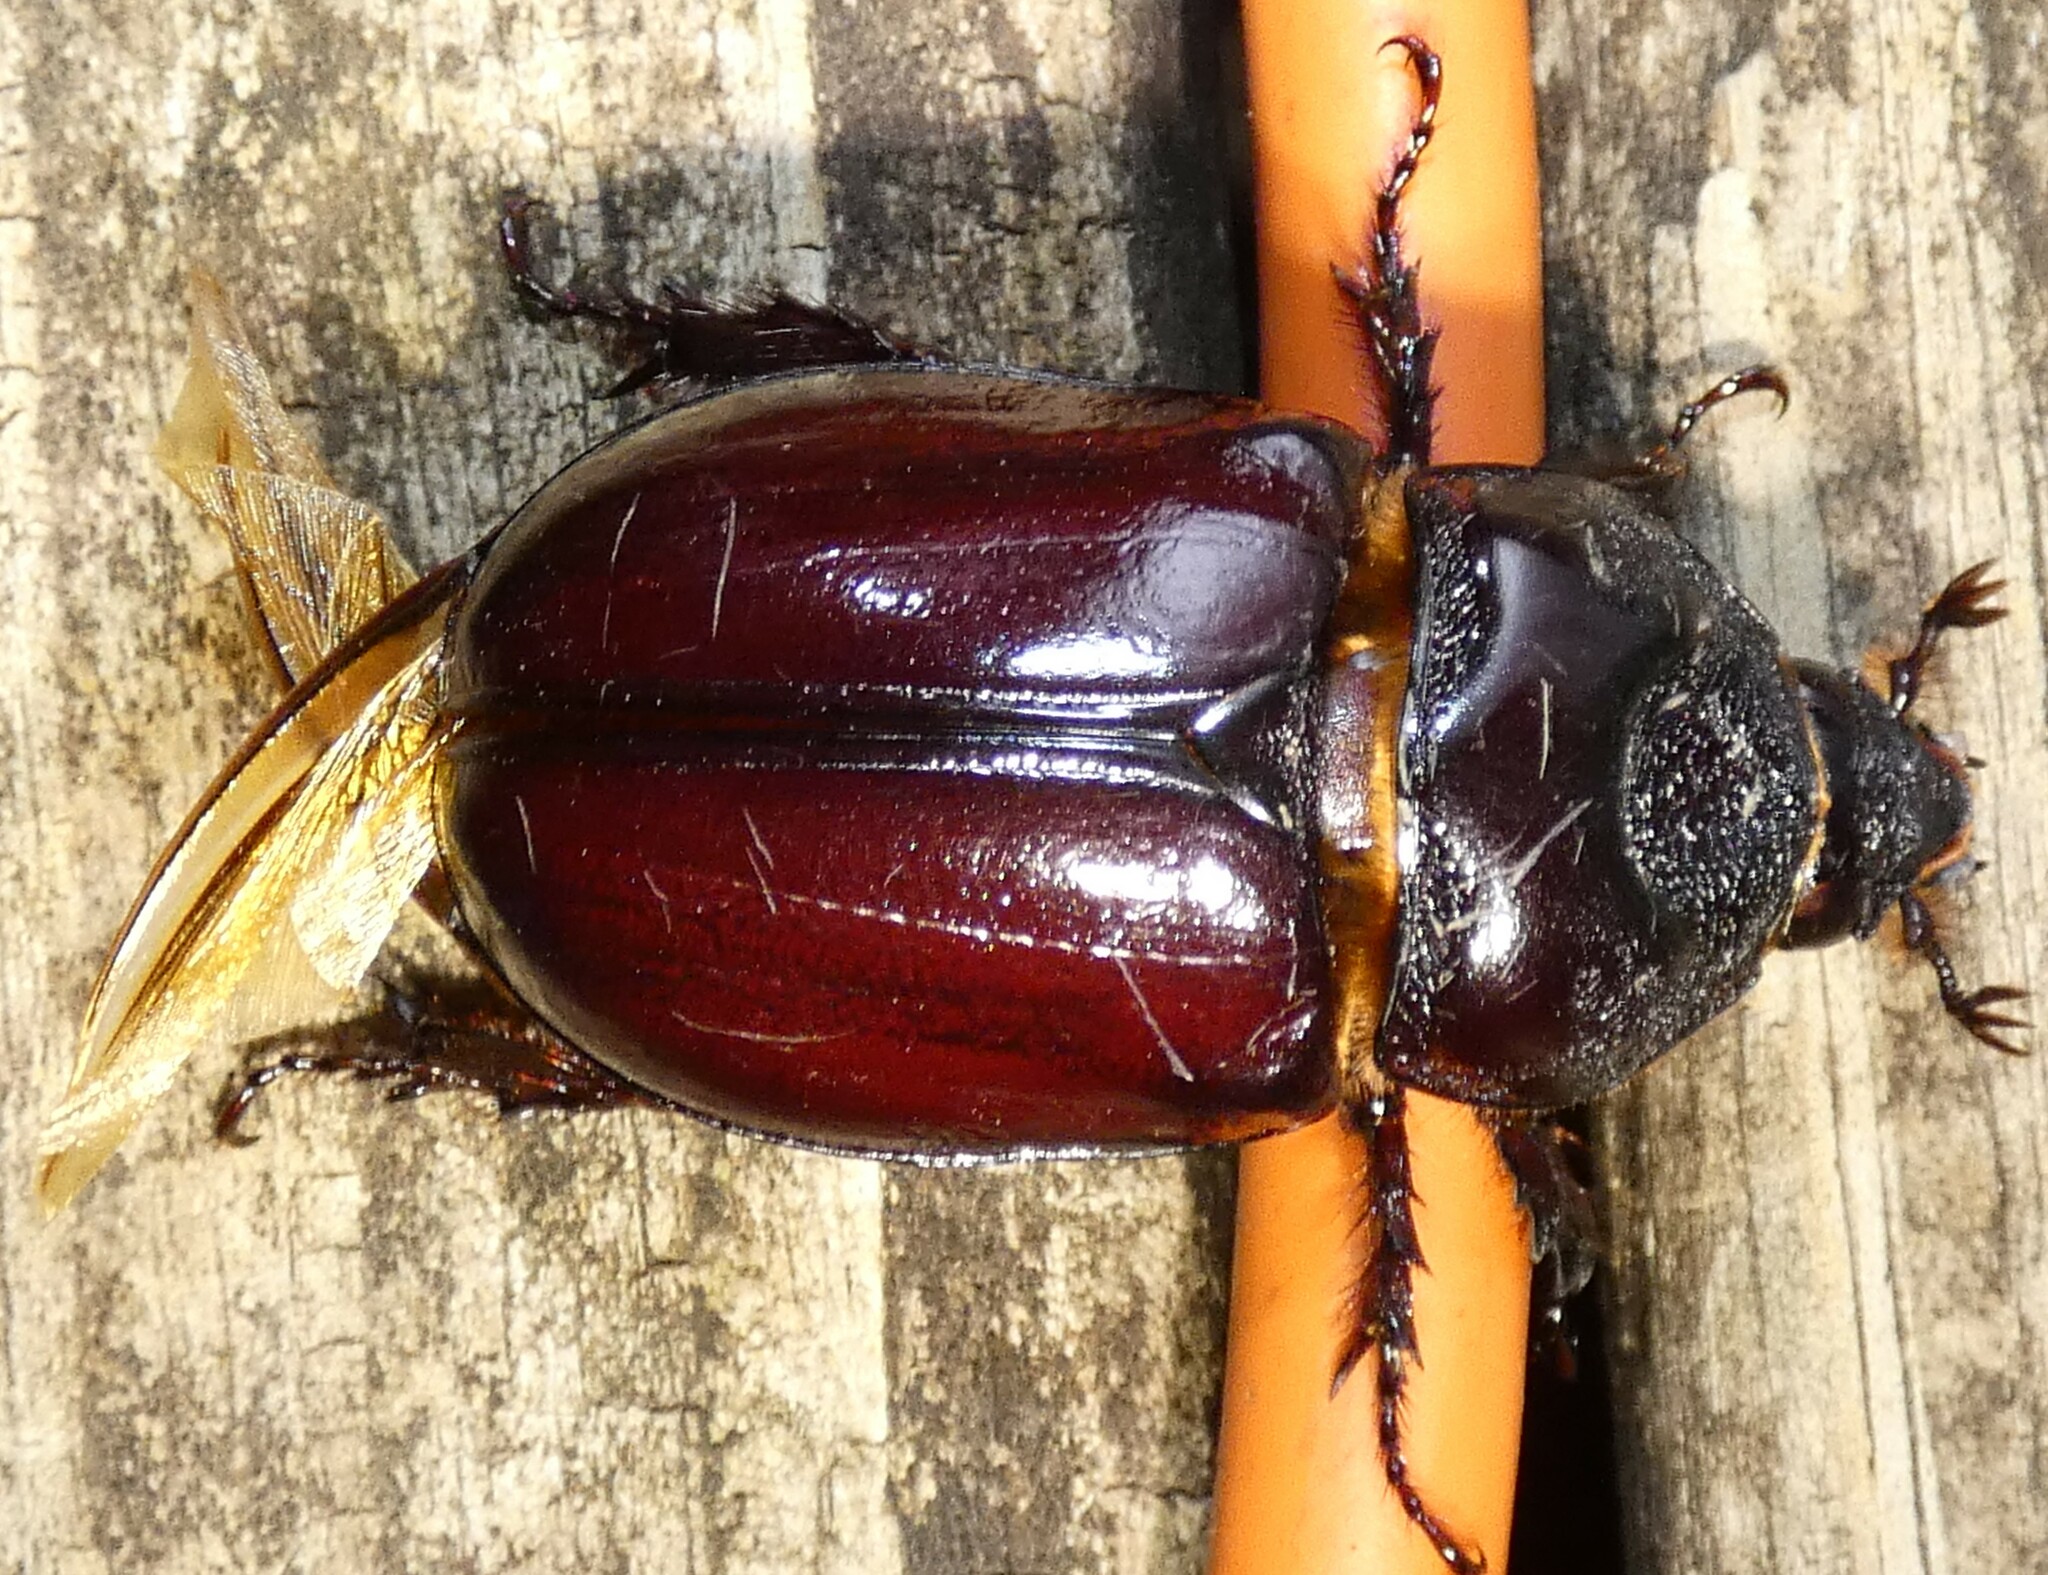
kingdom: Animalia
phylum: Arthropoda
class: Insecta
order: Coleoptera
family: Scarabaeidae
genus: Strategus
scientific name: Strategus aloeus
